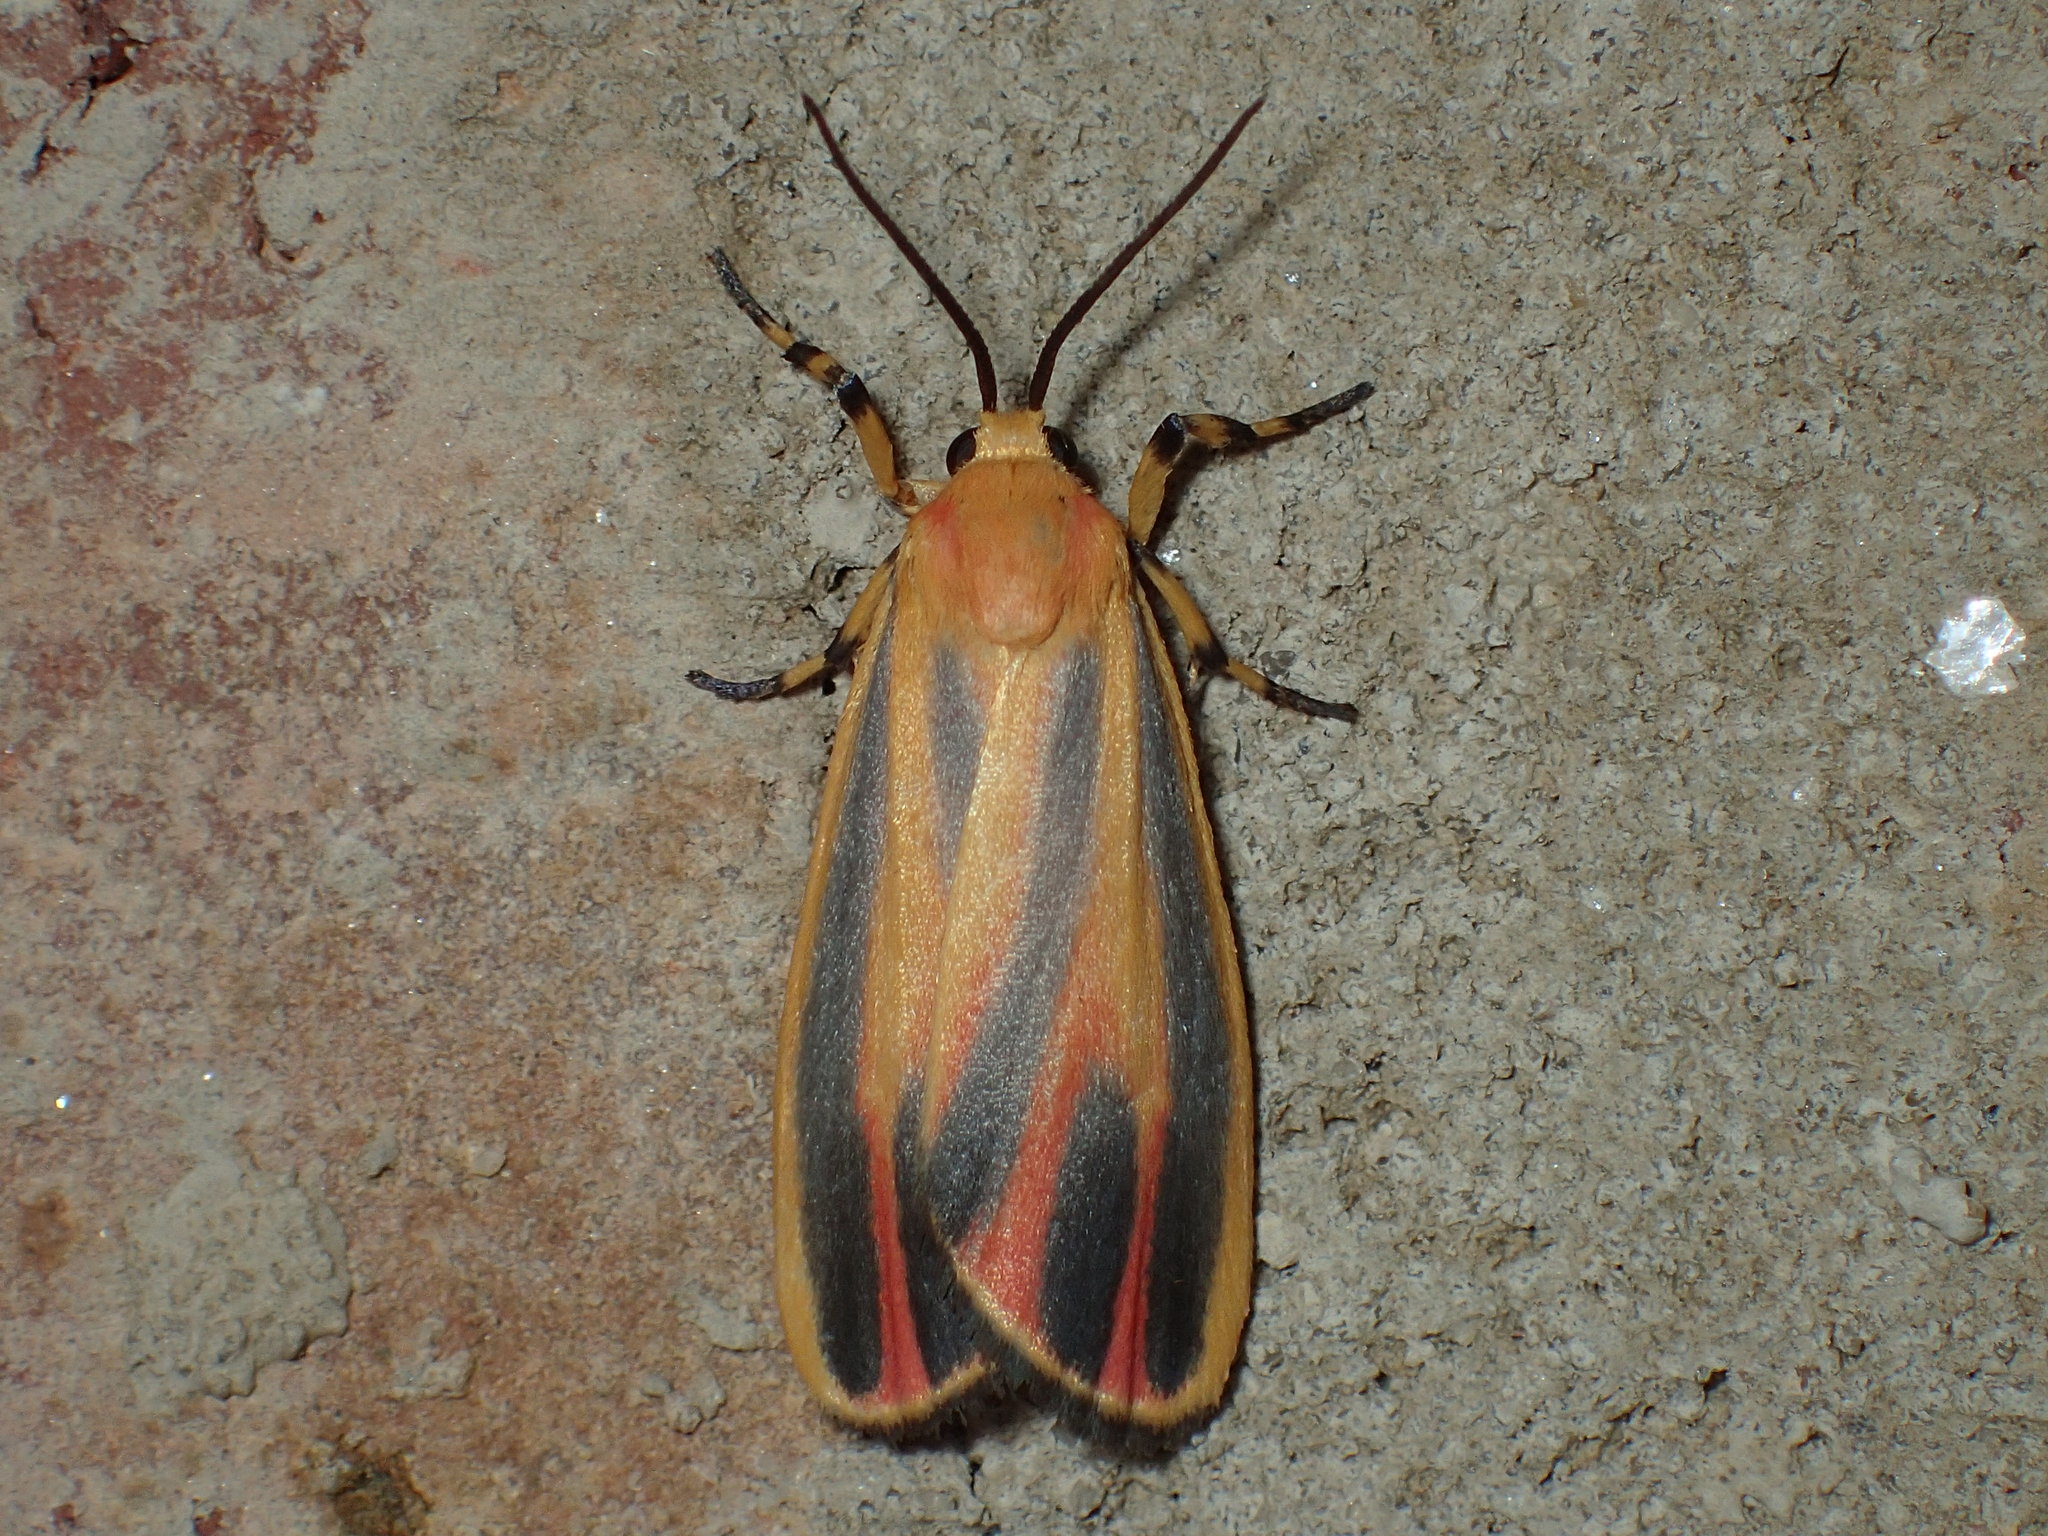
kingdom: Animalia
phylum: Arthropoda
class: Insecta
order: Lepidoptera
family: Erebidae
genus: Hypoprepia
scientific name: Hypoprepia fucosa
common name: Painted lichen moth
